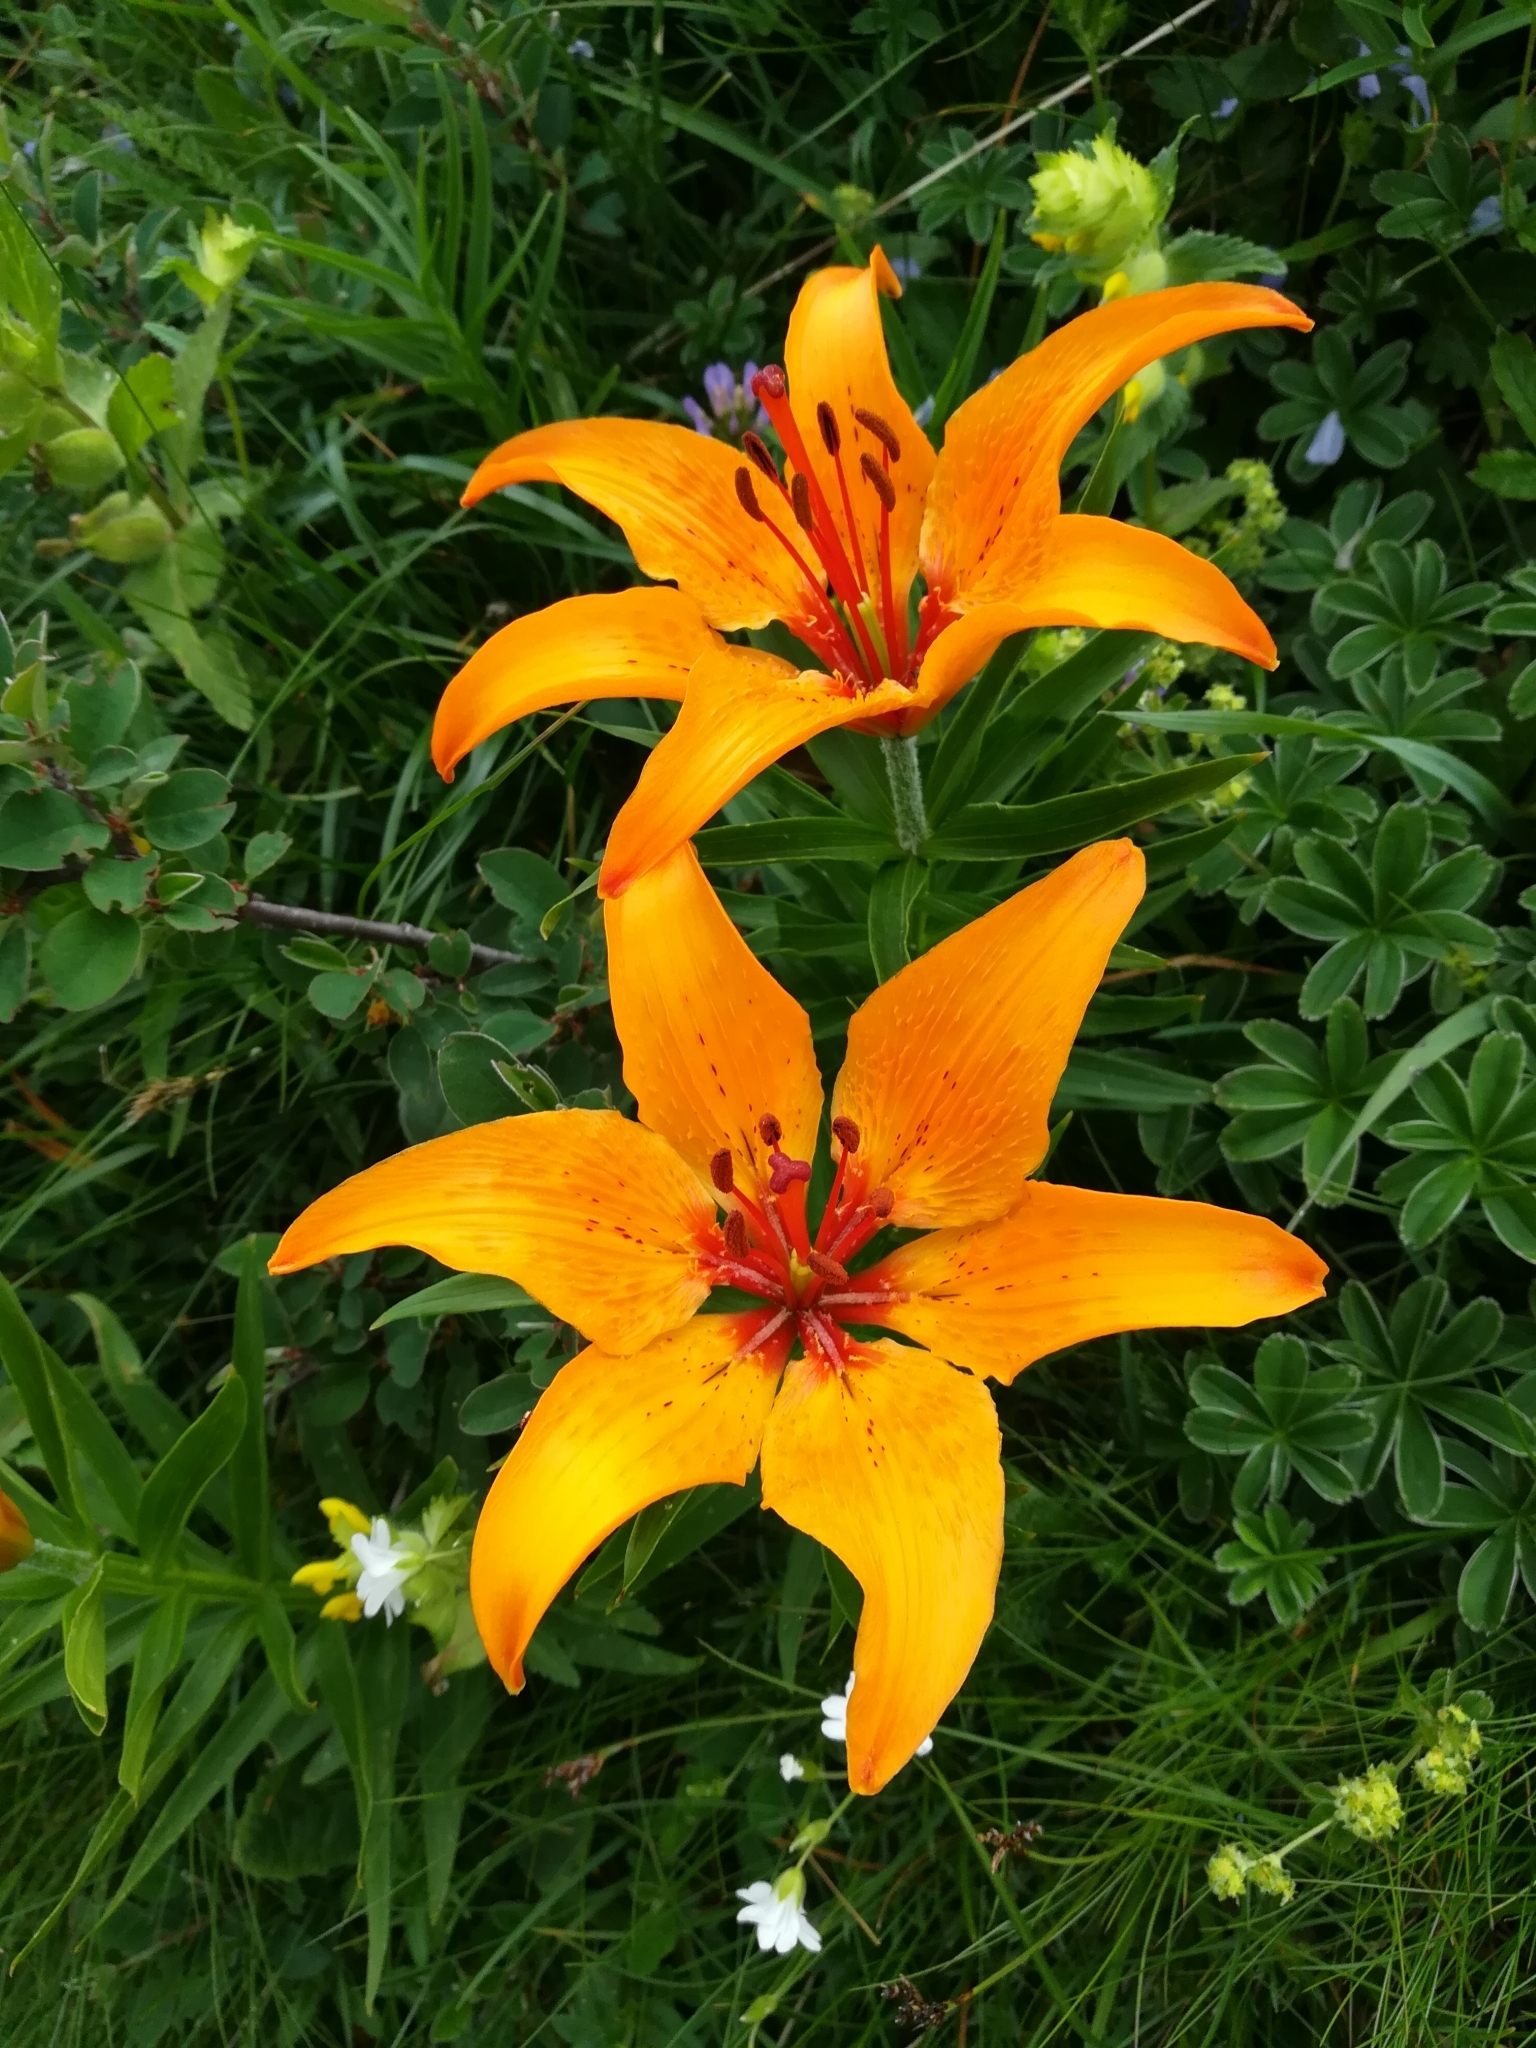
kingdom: Plantae
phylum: Tracheophyta
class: Liliopsida
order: Liliales
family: Liliaceae
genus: Lilium
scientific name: Lilium bulbiferum
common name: Orange lily
